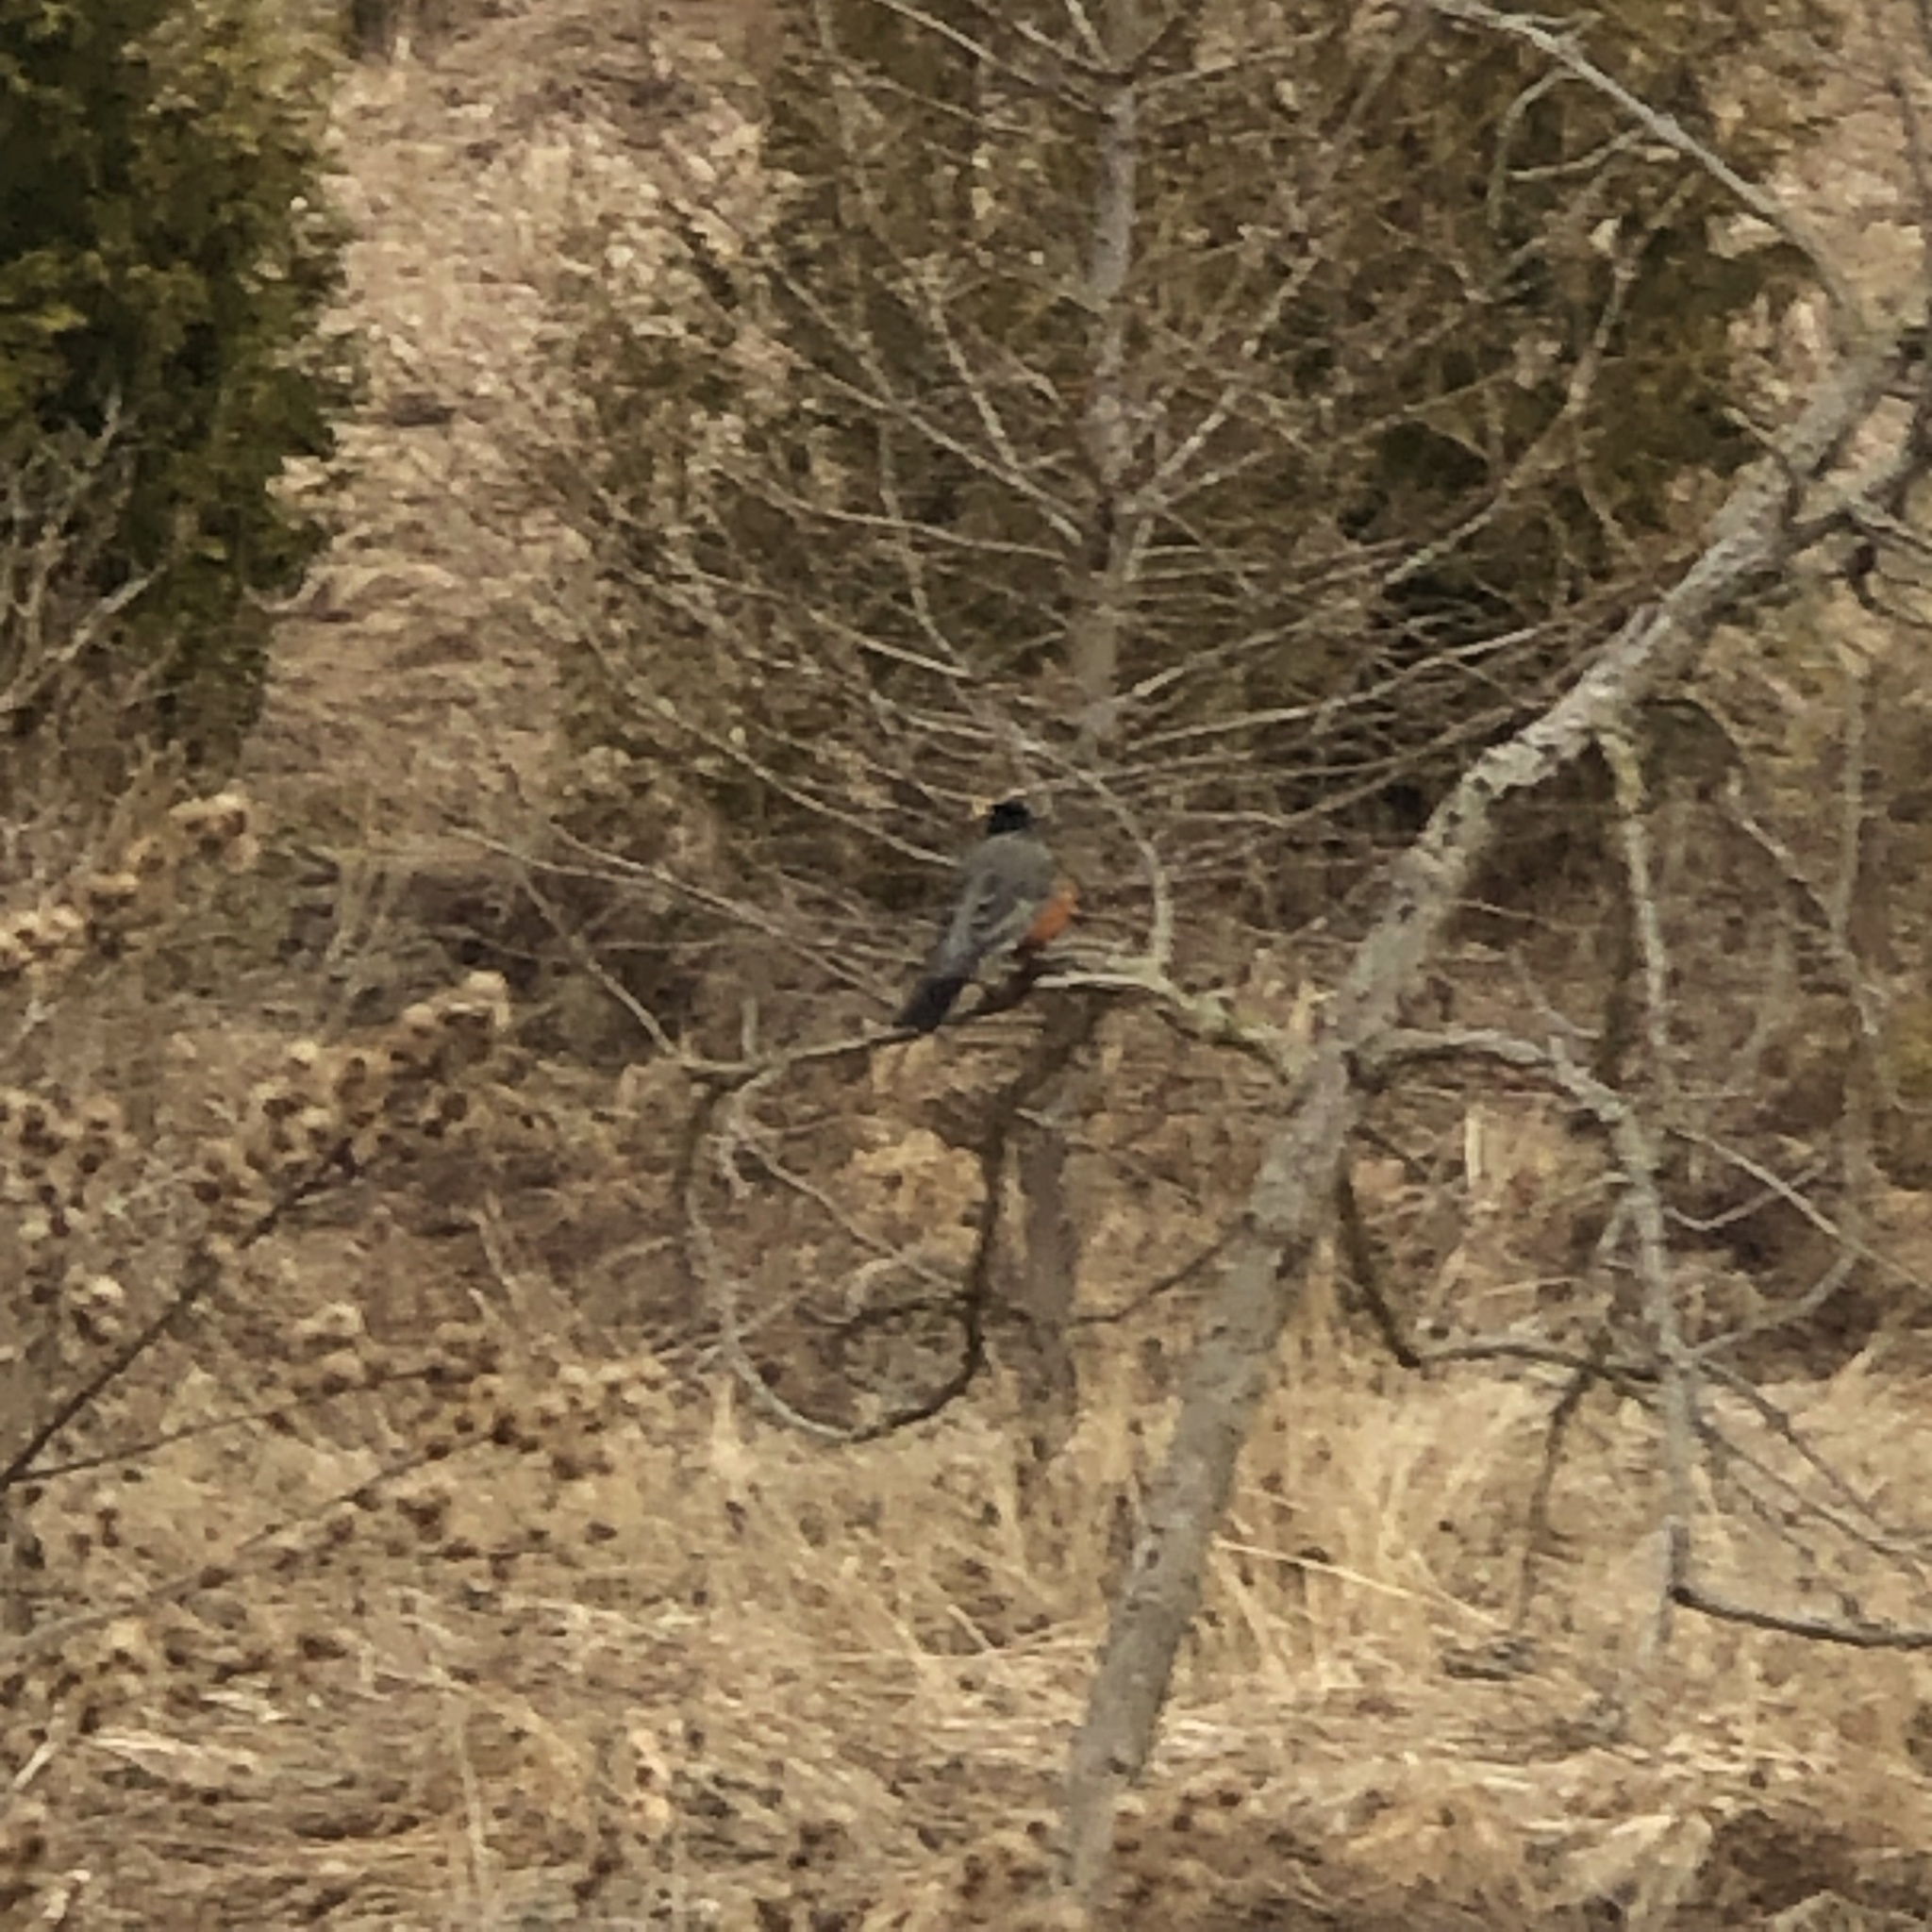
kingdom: Animalia
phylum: Chordata
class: Aves
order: Passeriformes
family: Turdidae
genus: Turdus
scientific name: Turdus migratorius
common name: American robin
